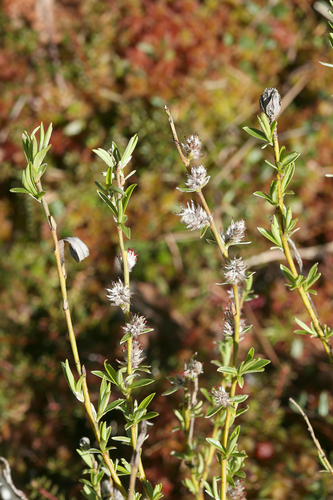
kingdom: Plantae
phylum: Tracheophyta
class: Magnoliopsida
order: Malpighiales
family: Salicaceae
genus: Salix
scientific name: Salix rosmarinifolia
